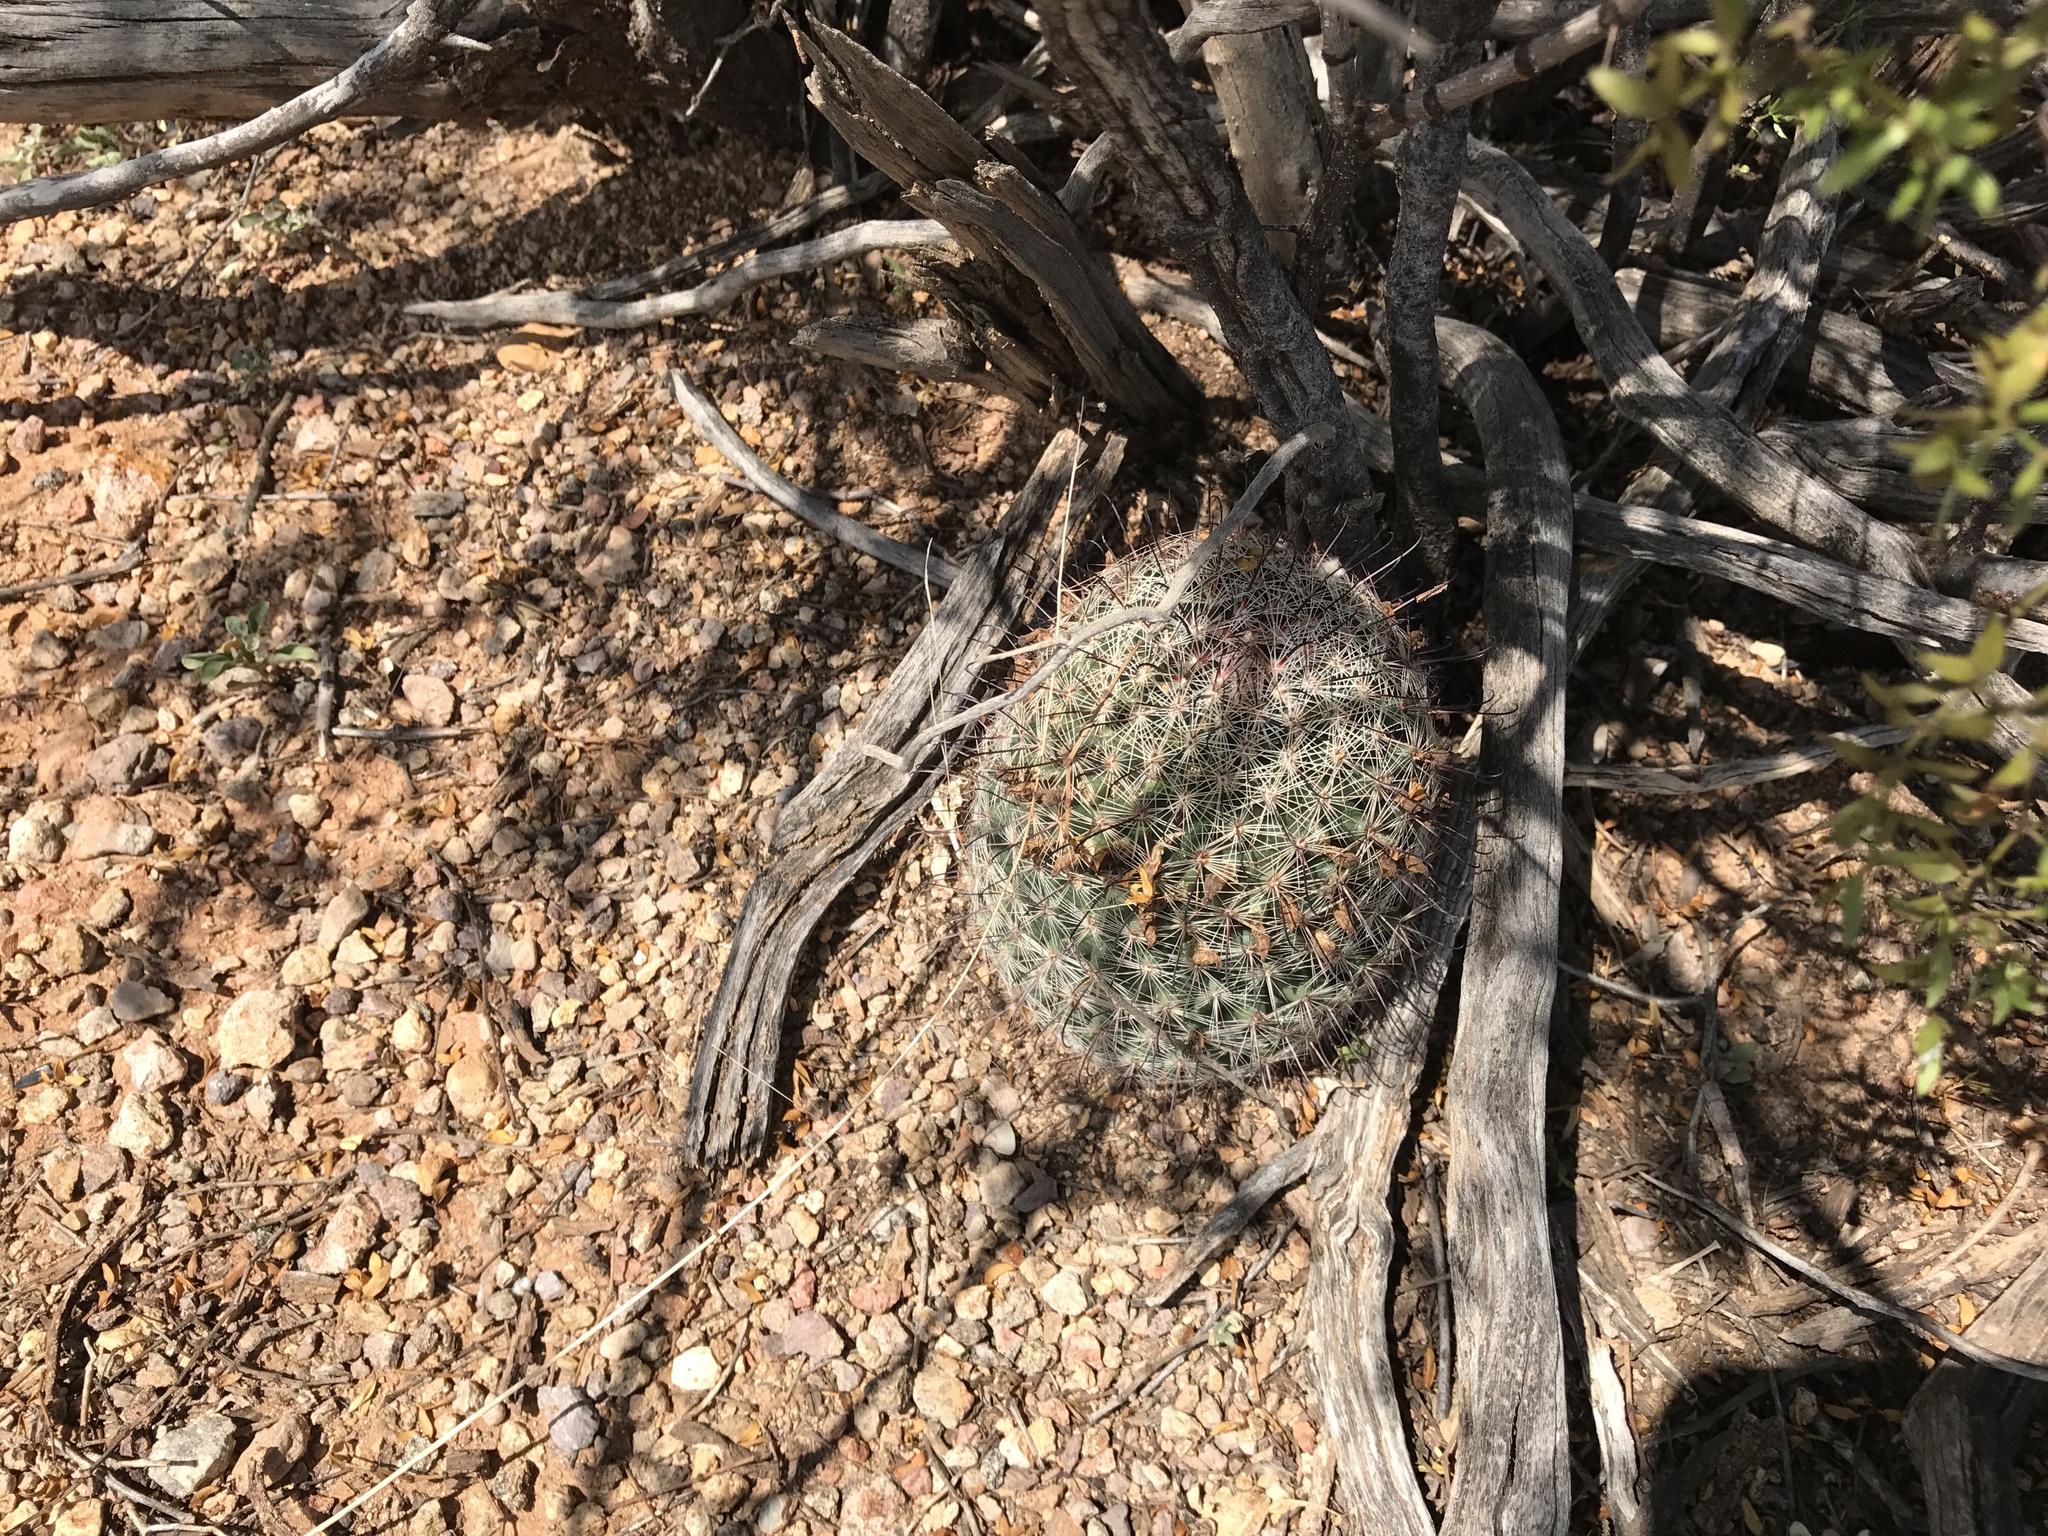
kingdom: Plantae
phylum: Tracheophyta
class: Magnoliopsida
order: Caryophyllales
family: Cactaceae
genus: Cochemiea
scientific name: Cochemiea grahamii
